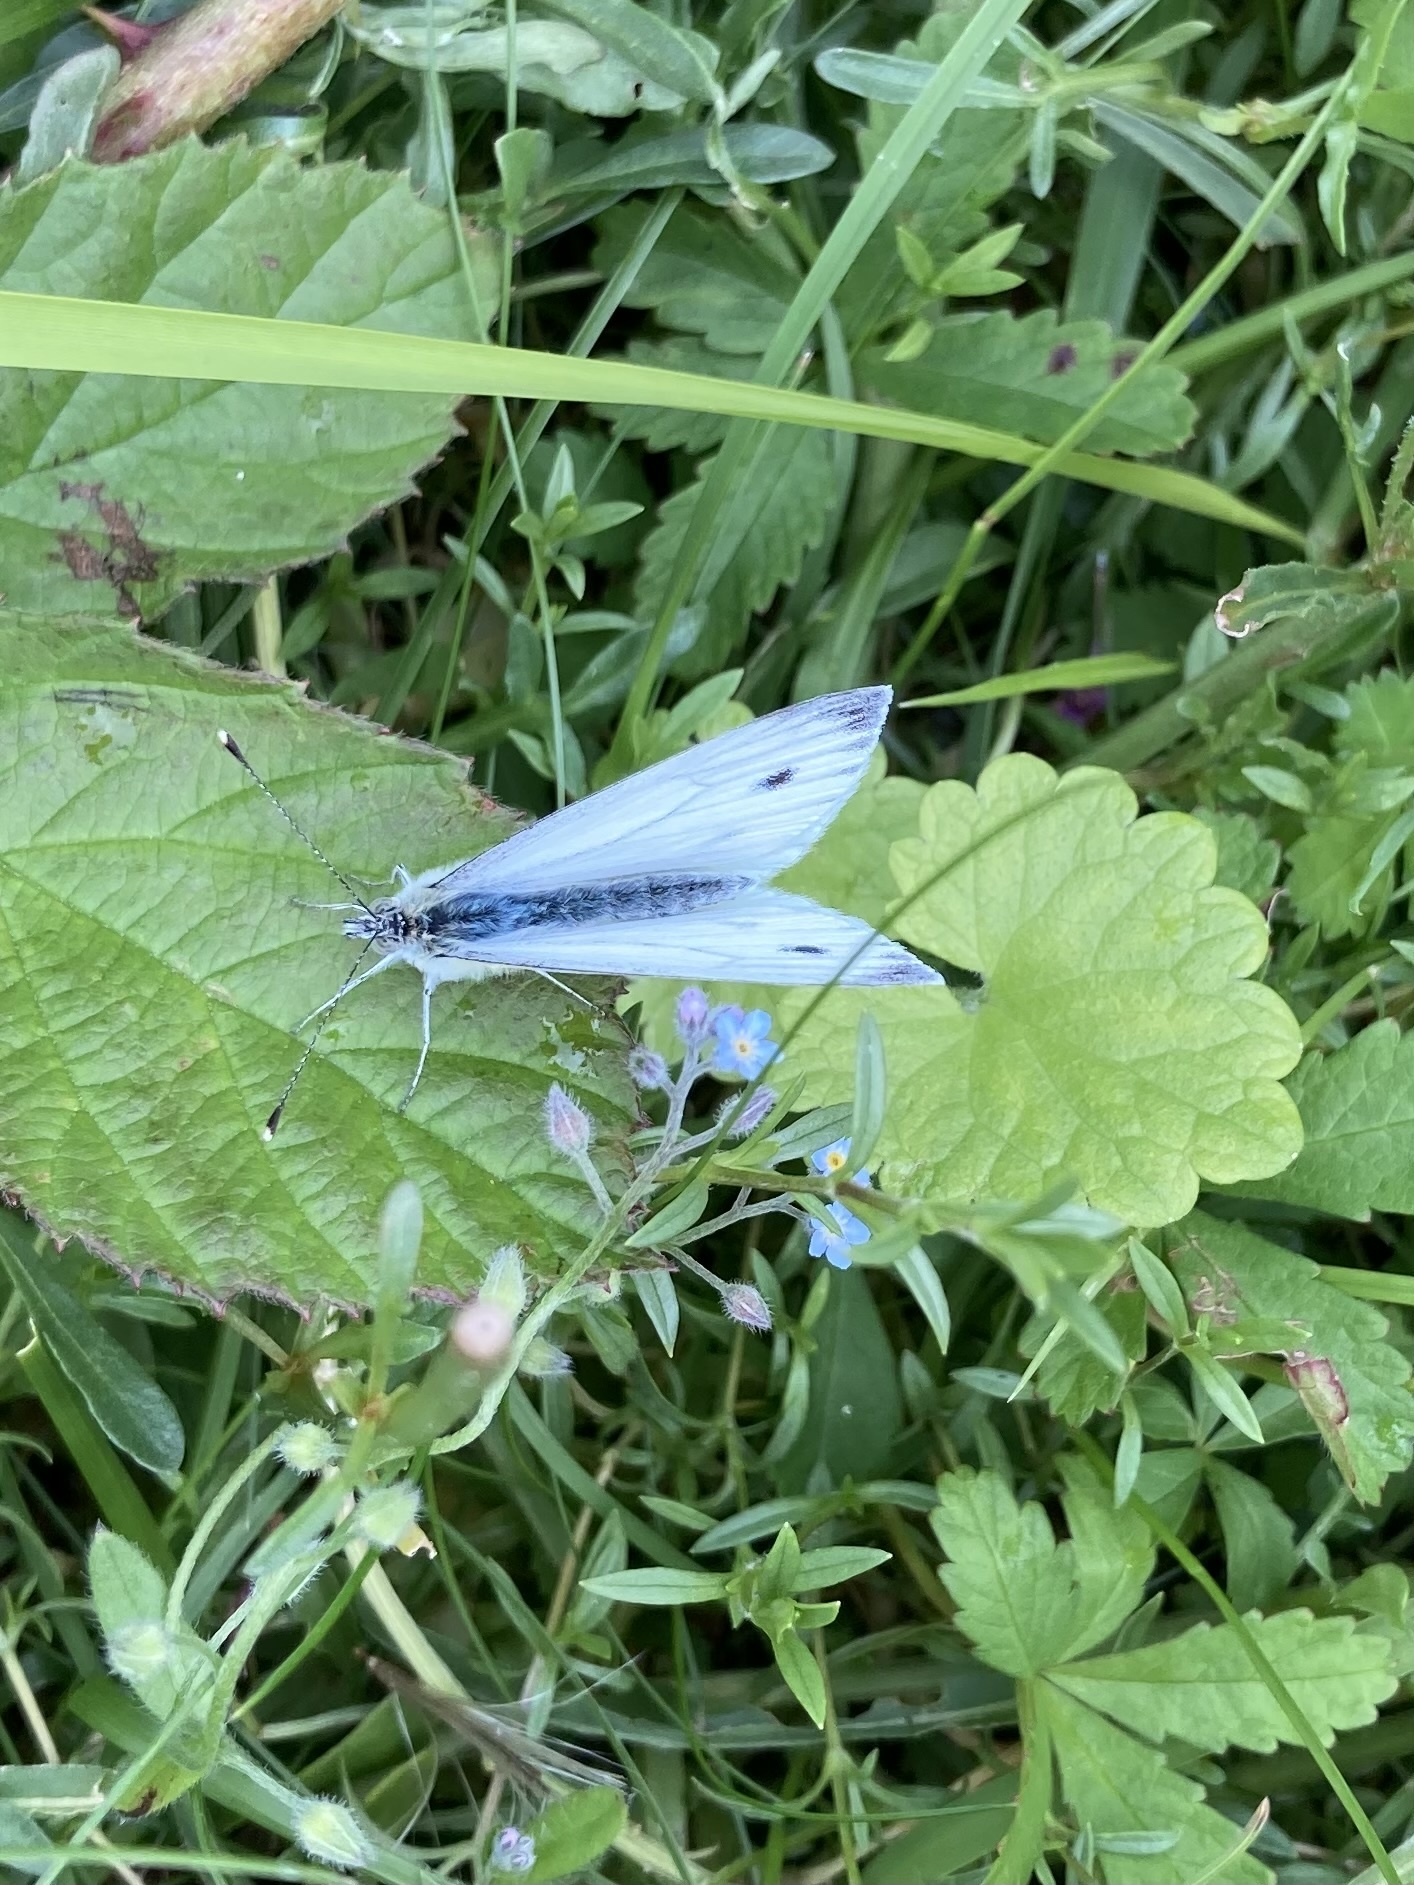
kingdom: Animalia
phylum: Arthropoda
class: Insecta
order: Lepidoptera
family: Pieridae
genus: Pieris
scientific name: Pieris napi
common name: Green-veined white
